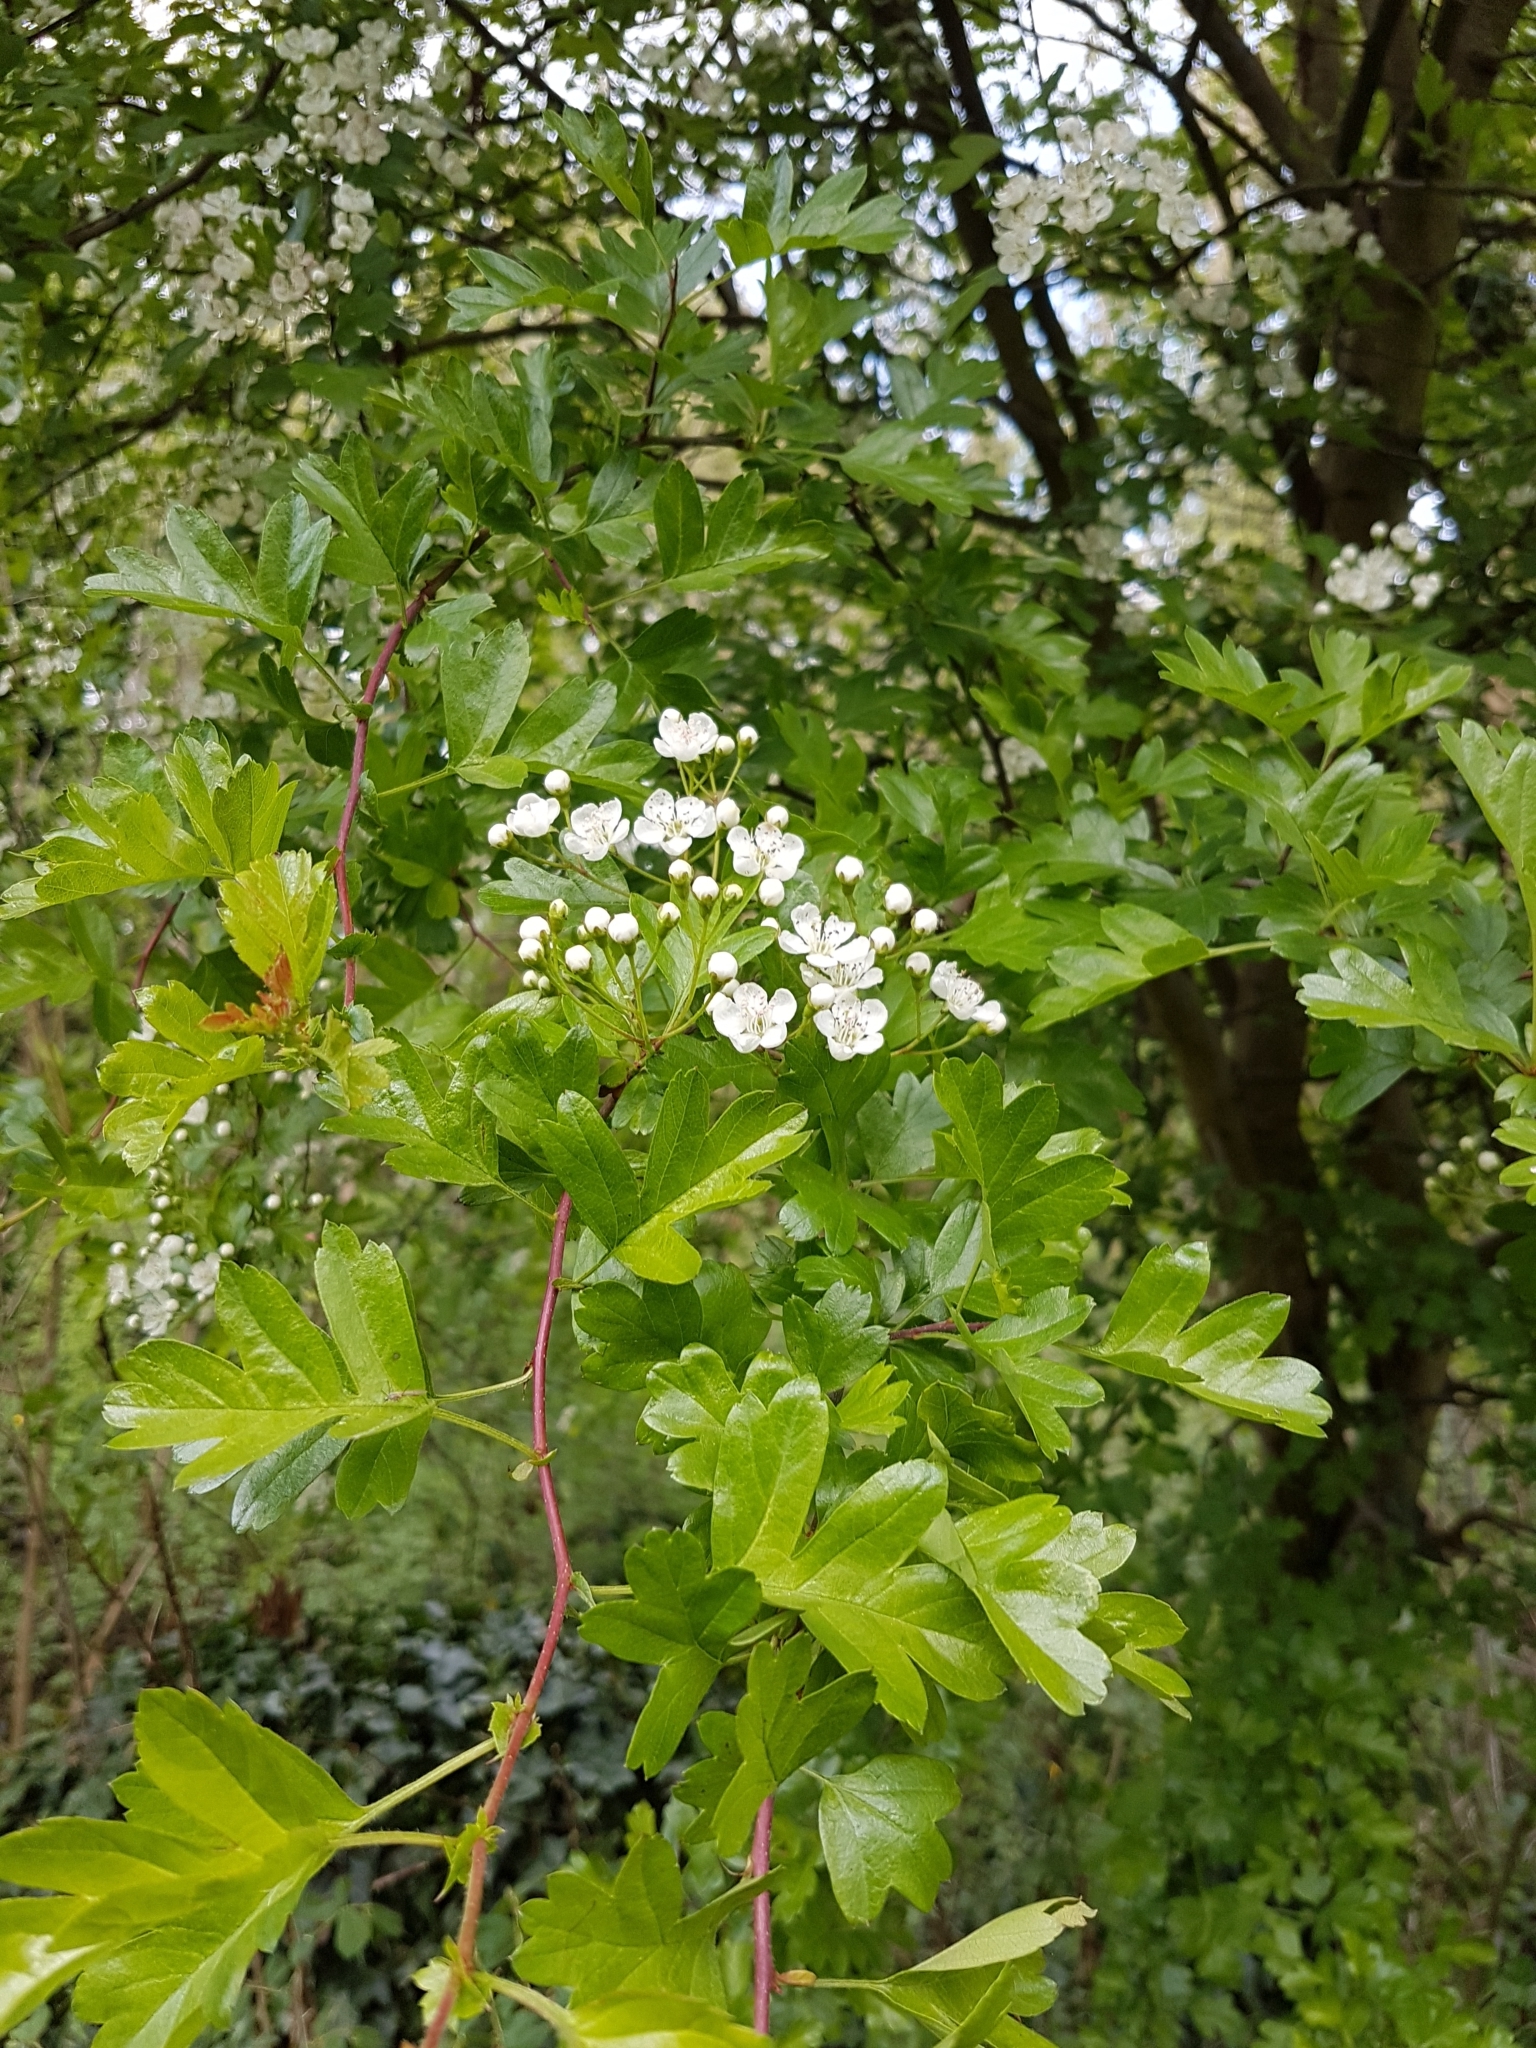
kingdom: Plantae
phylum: Tracheophyta
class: Magnoliopsida
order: Rosales
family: Rosaceae
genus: Crataegus
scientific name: Crataegus monogyna
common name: Hawthorn
